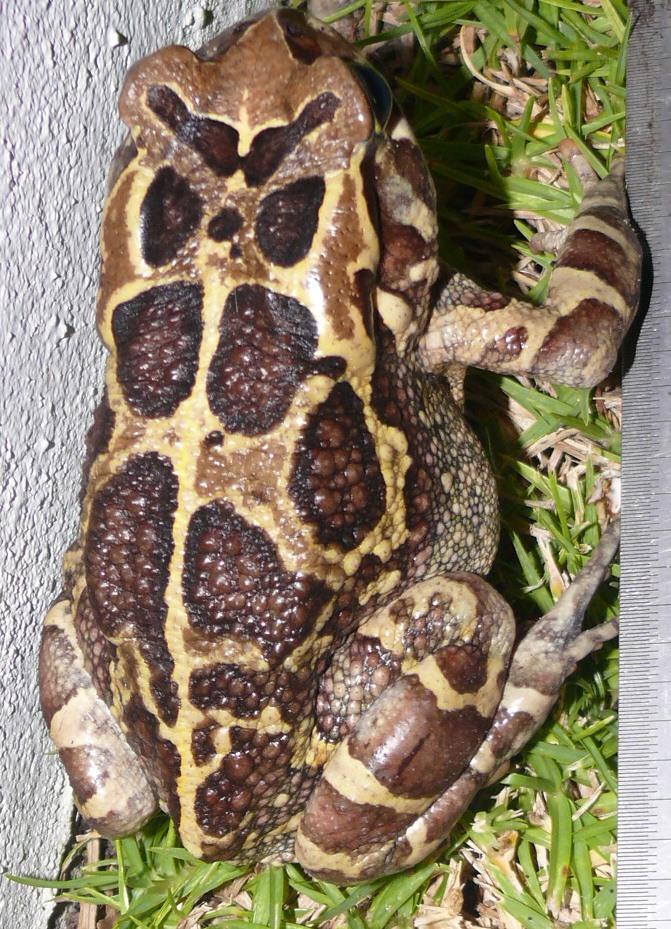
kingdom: Animalia
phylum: Chordata
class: Amphibia
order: Anura
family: Bufonidae
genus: Sclerophrys
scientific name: Sclerophrys pantherina
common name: Panther toad
